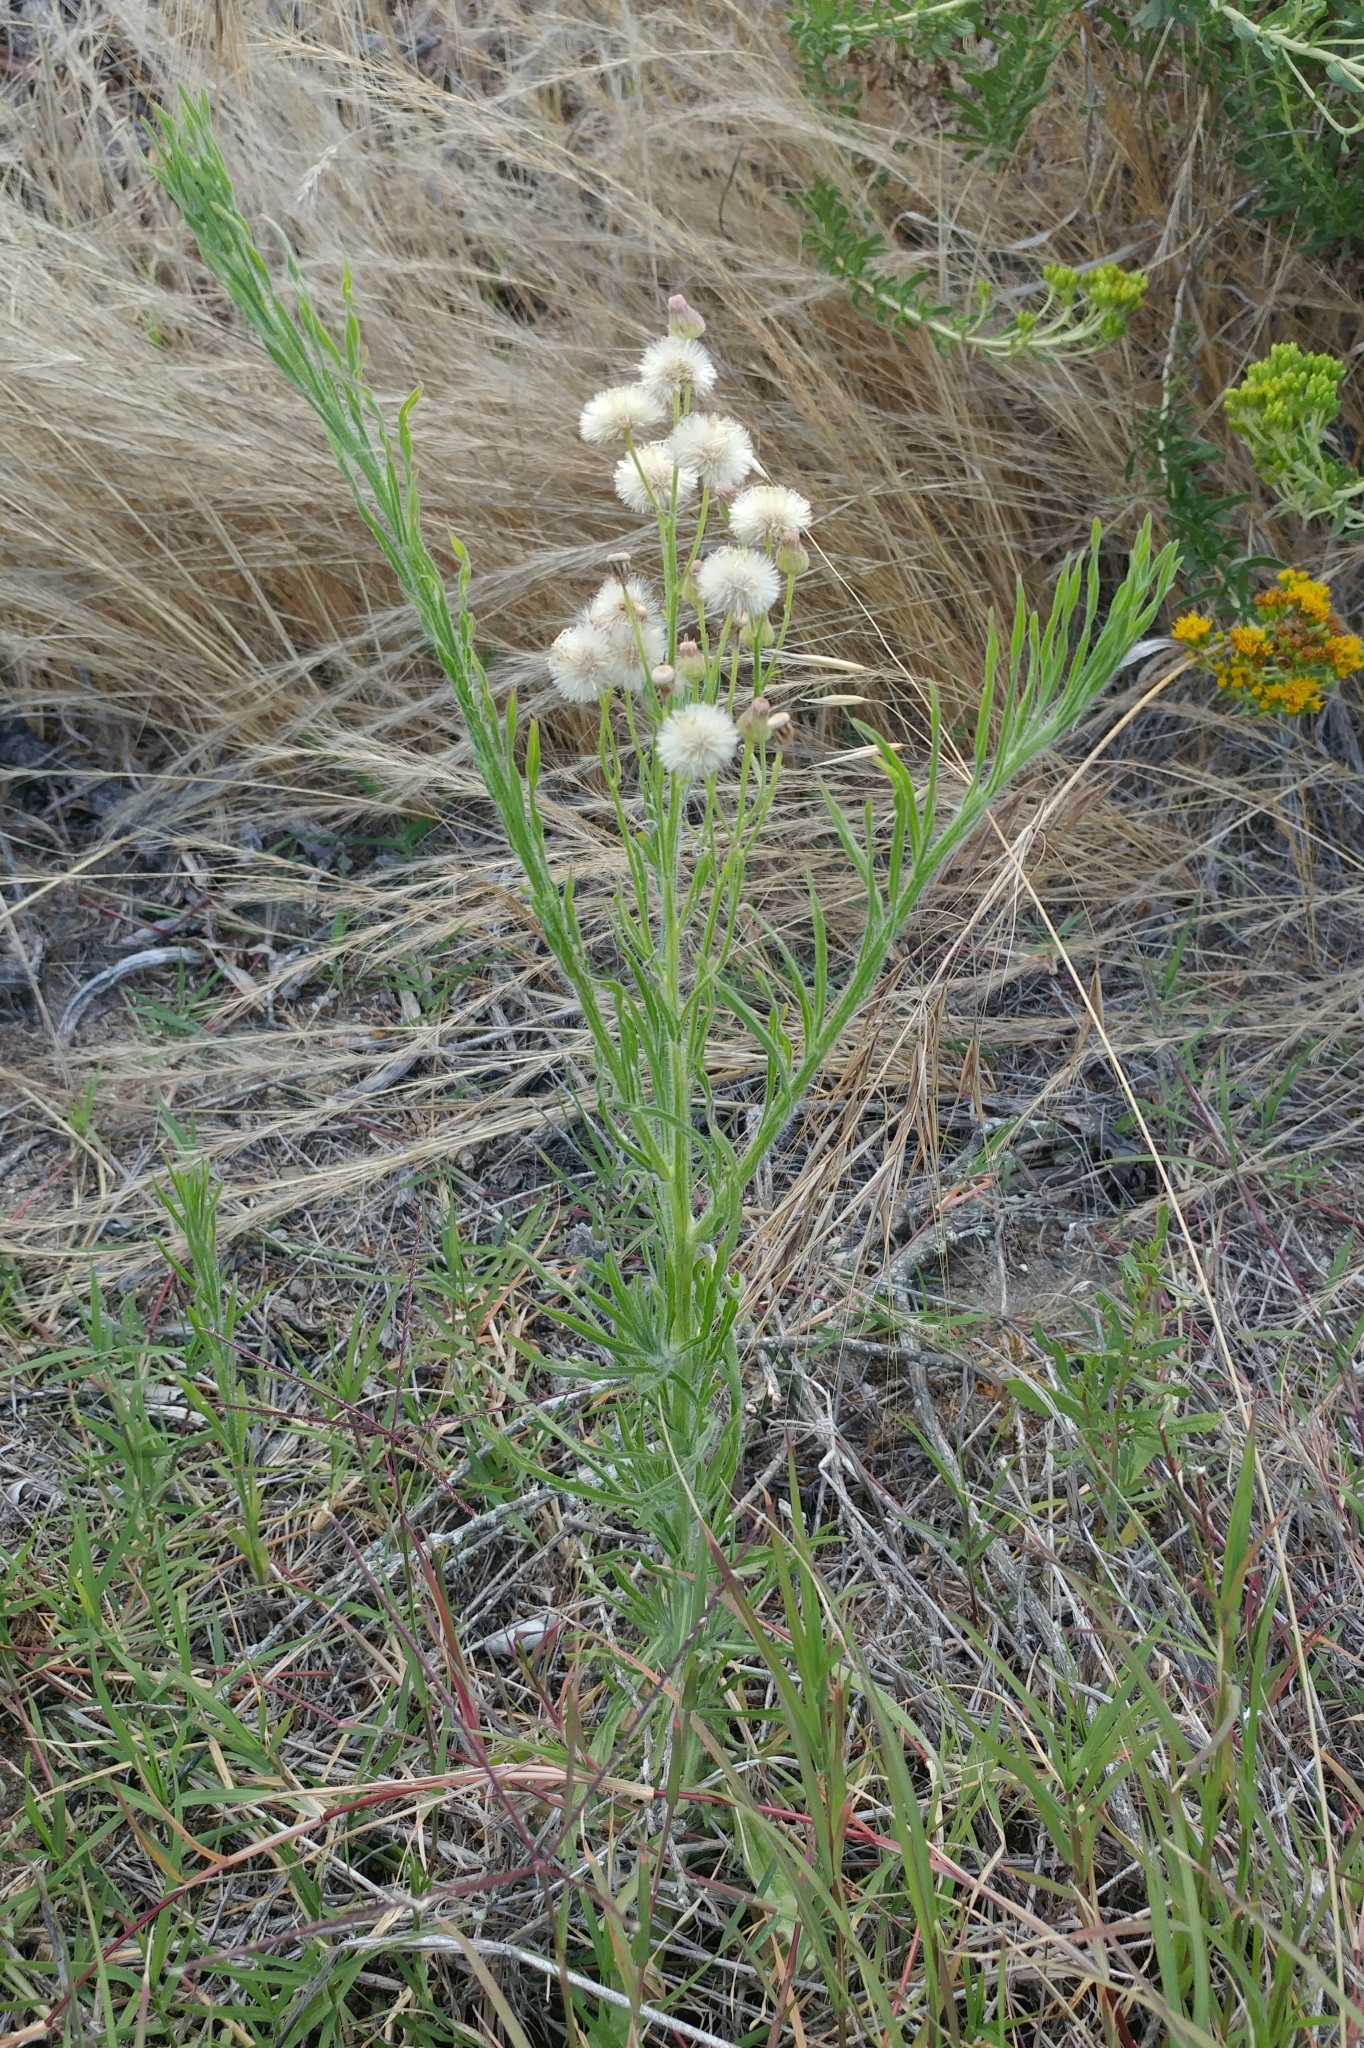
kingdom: Plantae
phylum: Tracheophyta
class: Magnoliopsida
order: Asterales
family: Asteraceae
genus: Erigeron
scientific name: Erigeron bonariensis
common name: Argentine fleabane
